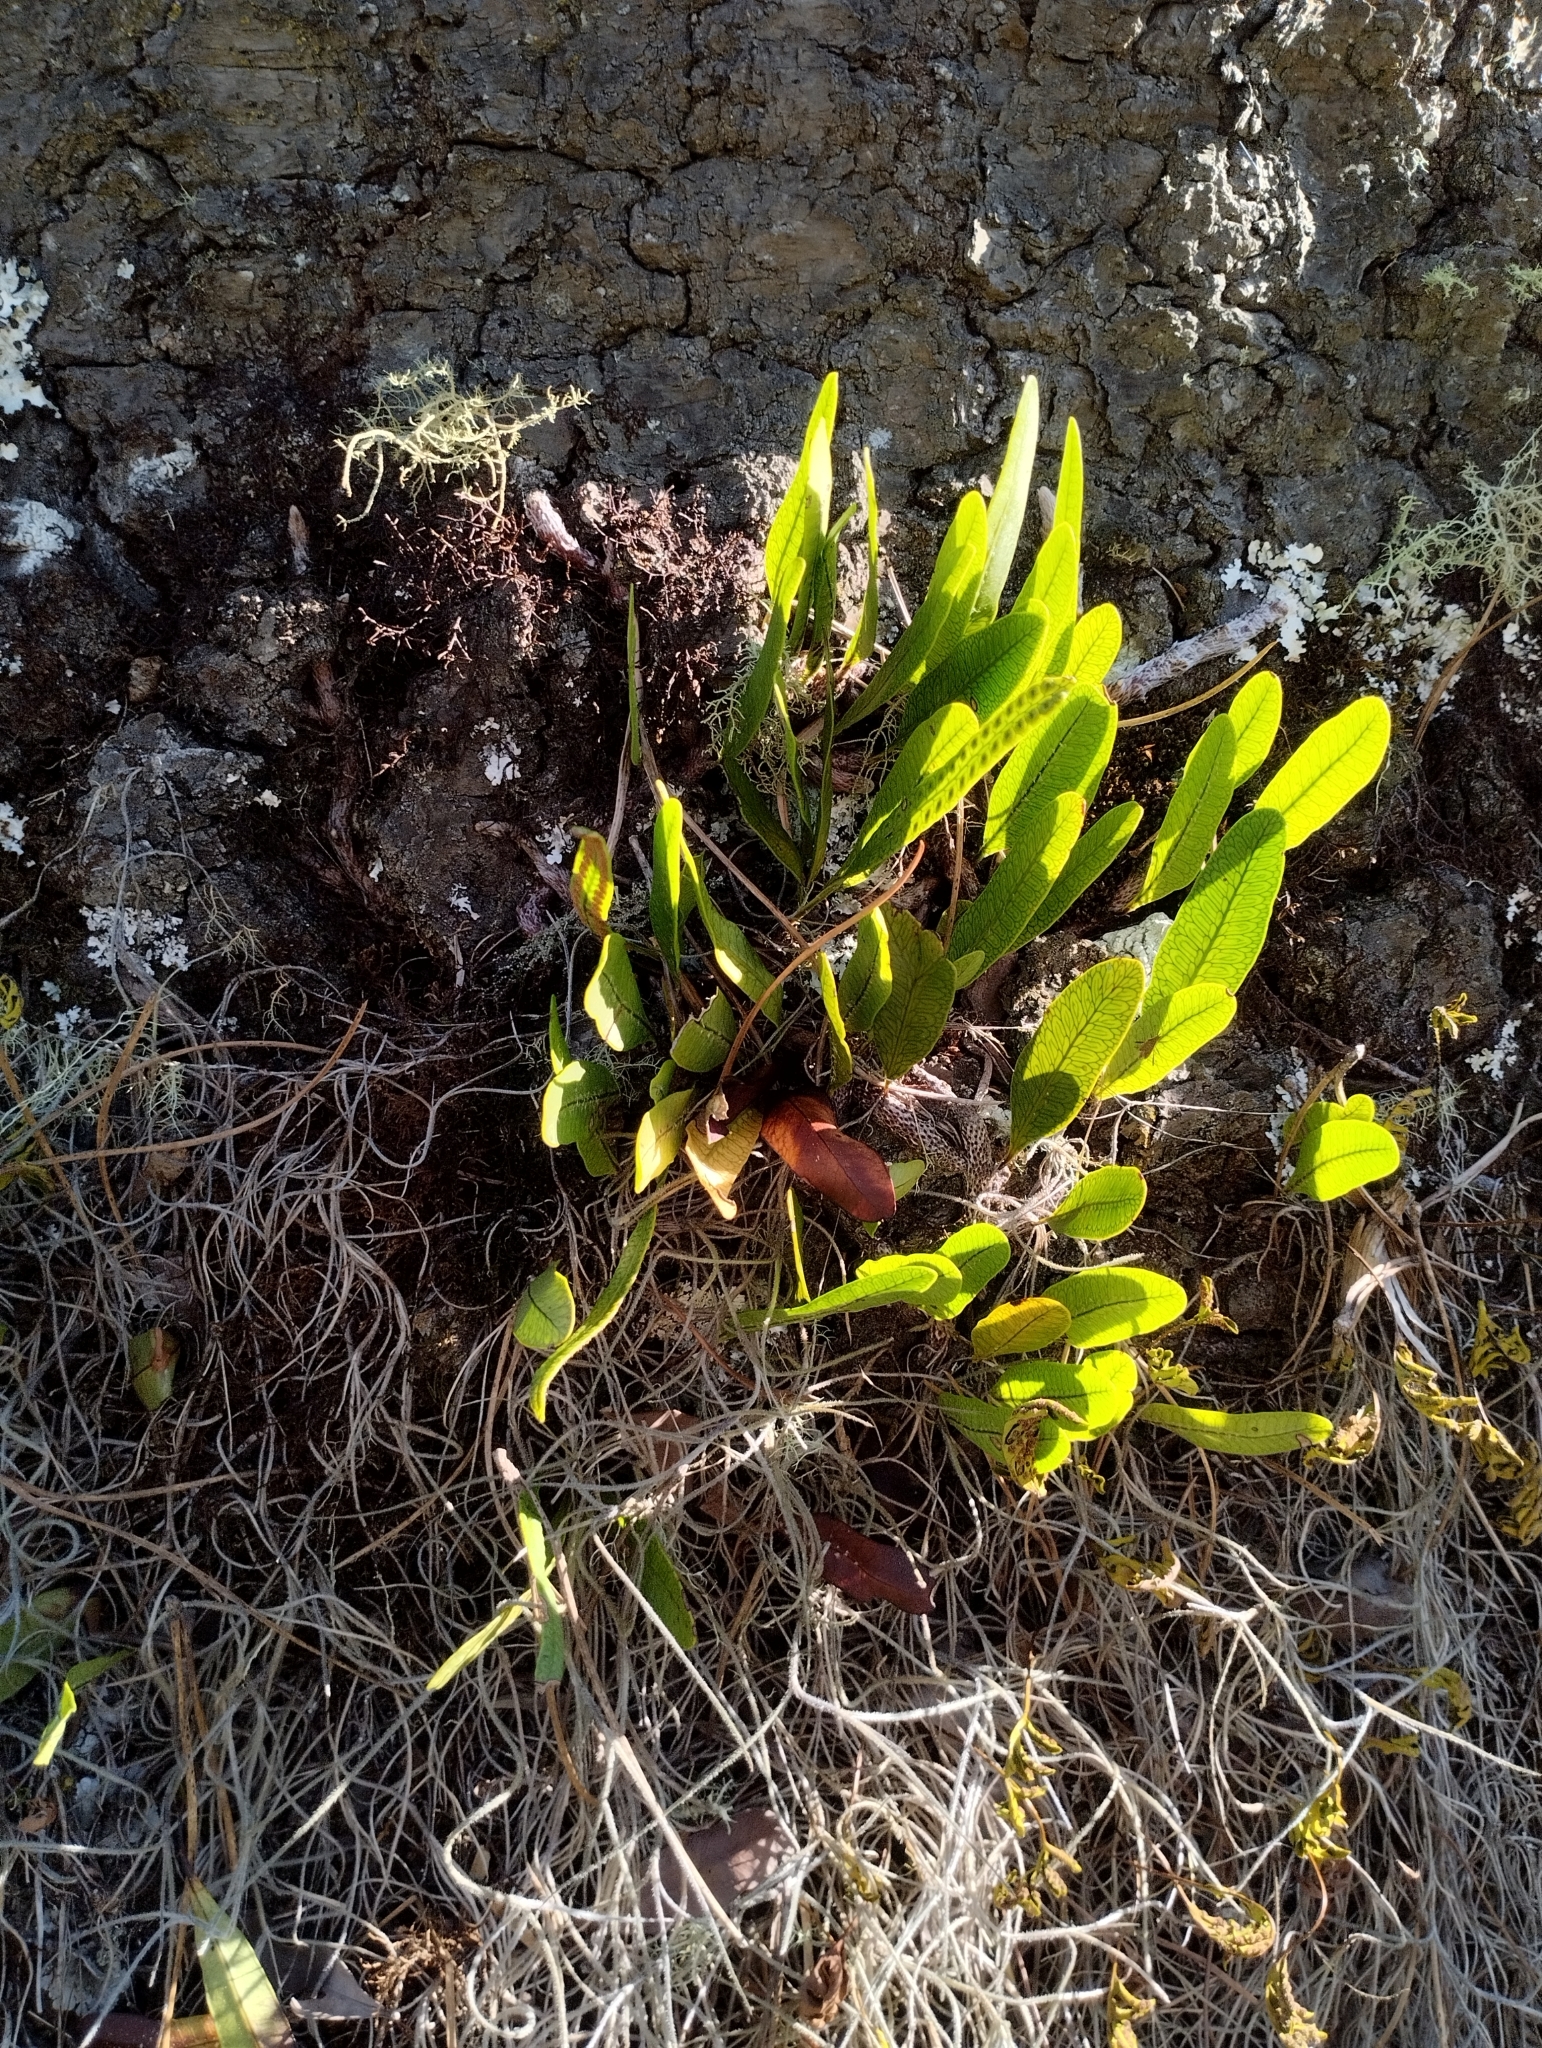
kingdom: Plantae
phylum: Tracheophyta
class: Polypodiopsida
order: Polypodiales
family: Polypodiaceae
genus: Microgramma
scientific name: Microgramma squamulosa
